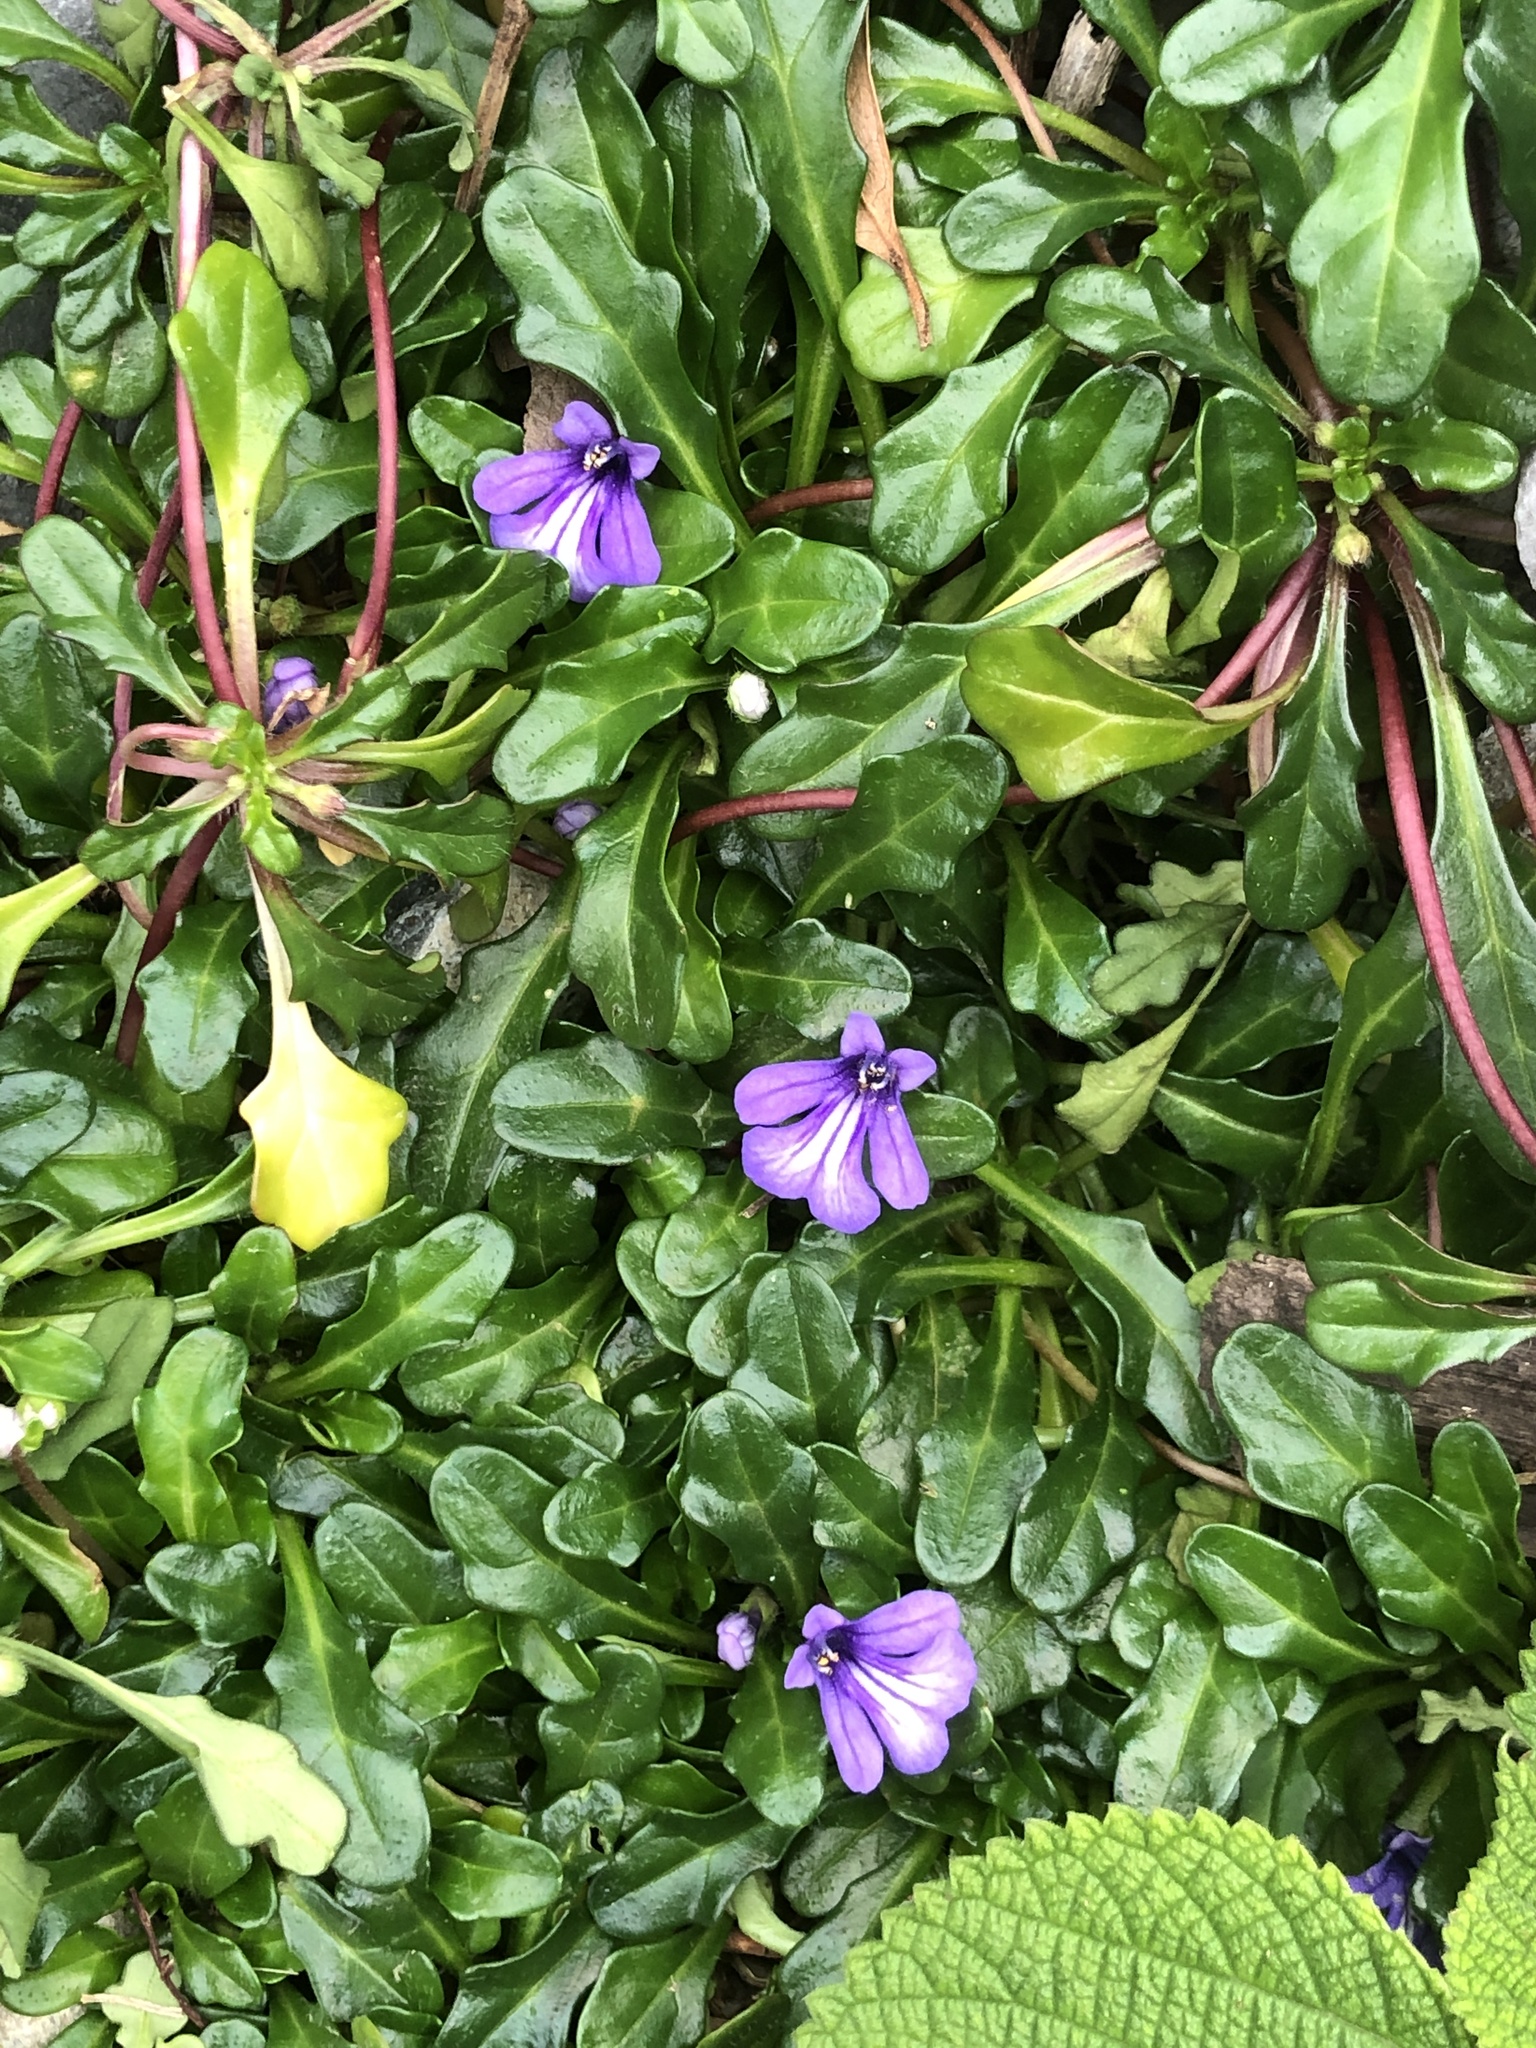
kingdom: Plantae
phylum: Tracheophyta
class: Magnoliopsida
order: Lamiales
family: Lamiaceae
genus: Ajuga
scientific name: Ajuga pygmaea
